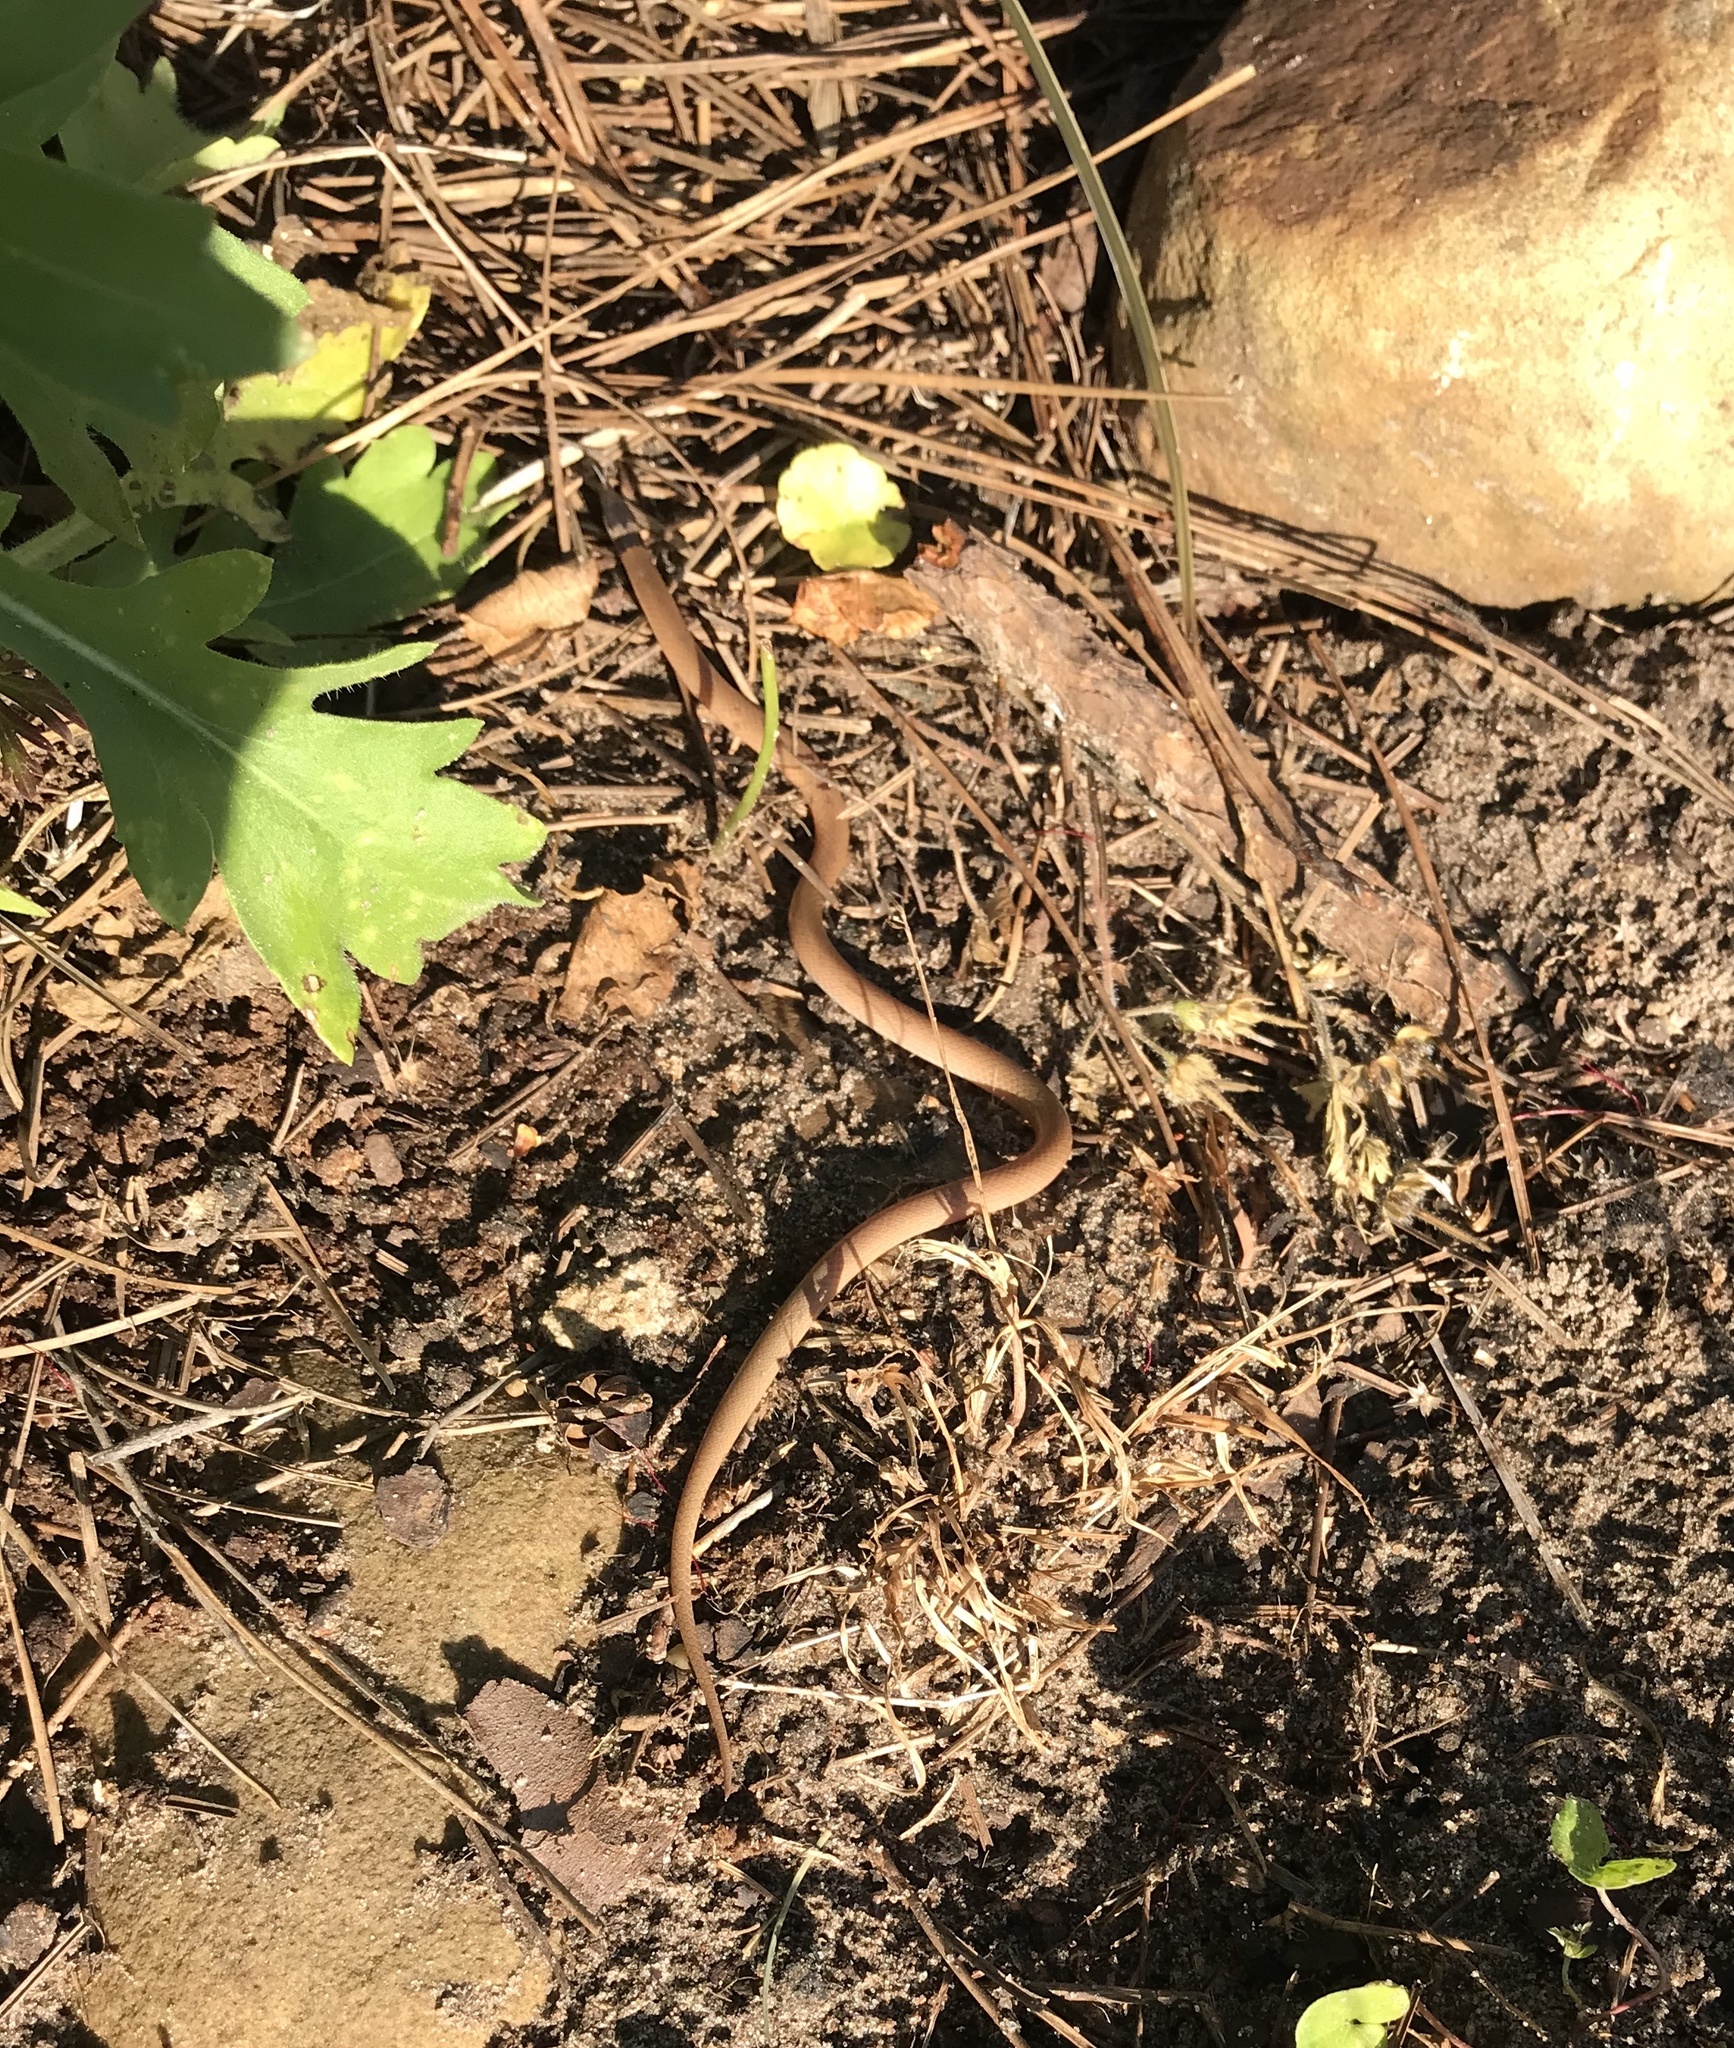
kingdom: Animalia
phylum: Chordata
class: Squamata
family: Colubridae
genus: Tantilla
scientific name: Tantilla coronata
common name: Southeastern crowned snake
